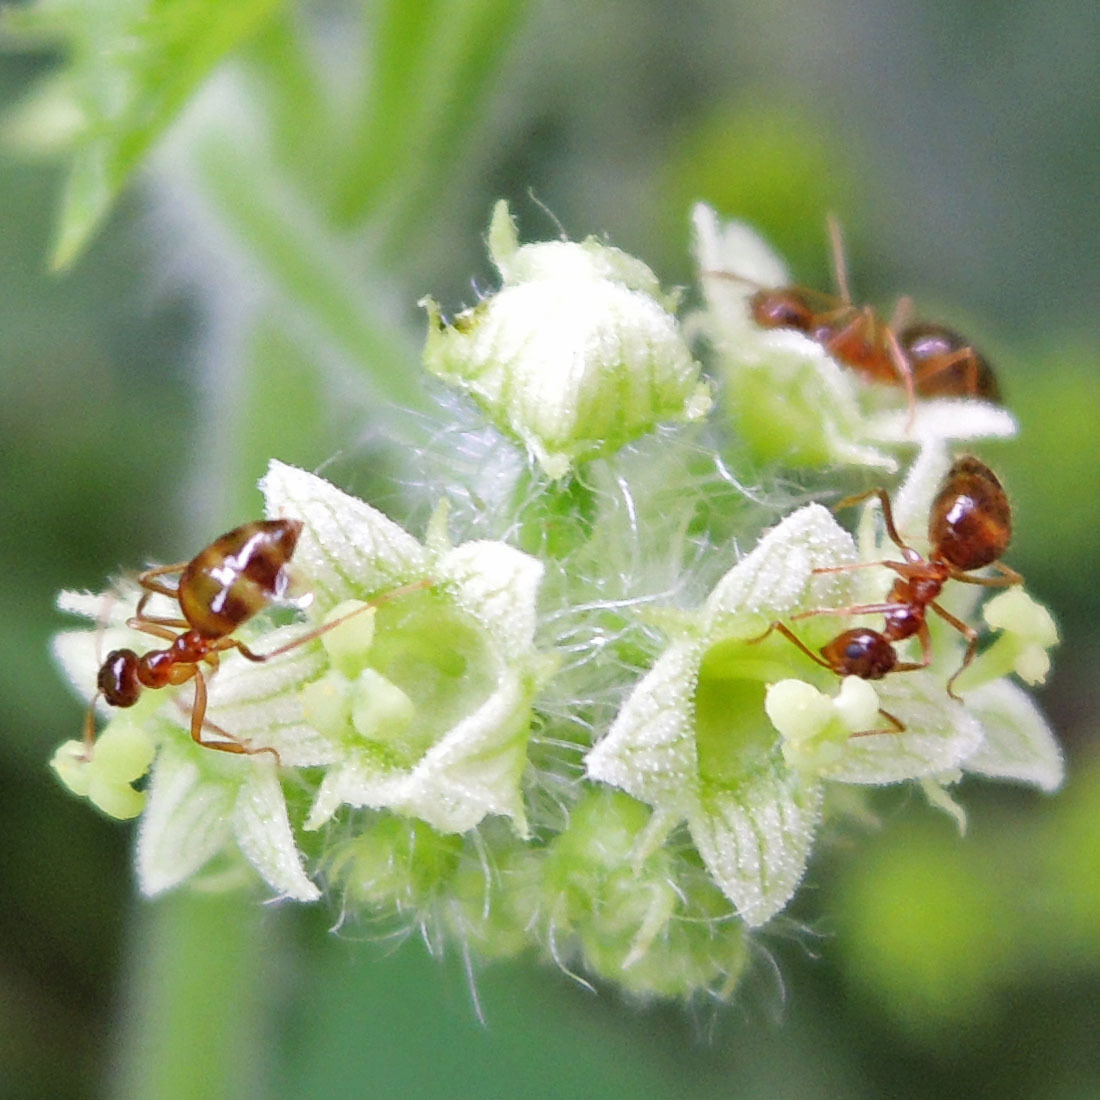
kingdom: Animalia
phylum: Arthropoda
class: Insecta
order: Hymenoptera
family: Formicidae
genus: Prenolepis
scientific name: Prenolepis imparis
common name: Small honey ant
